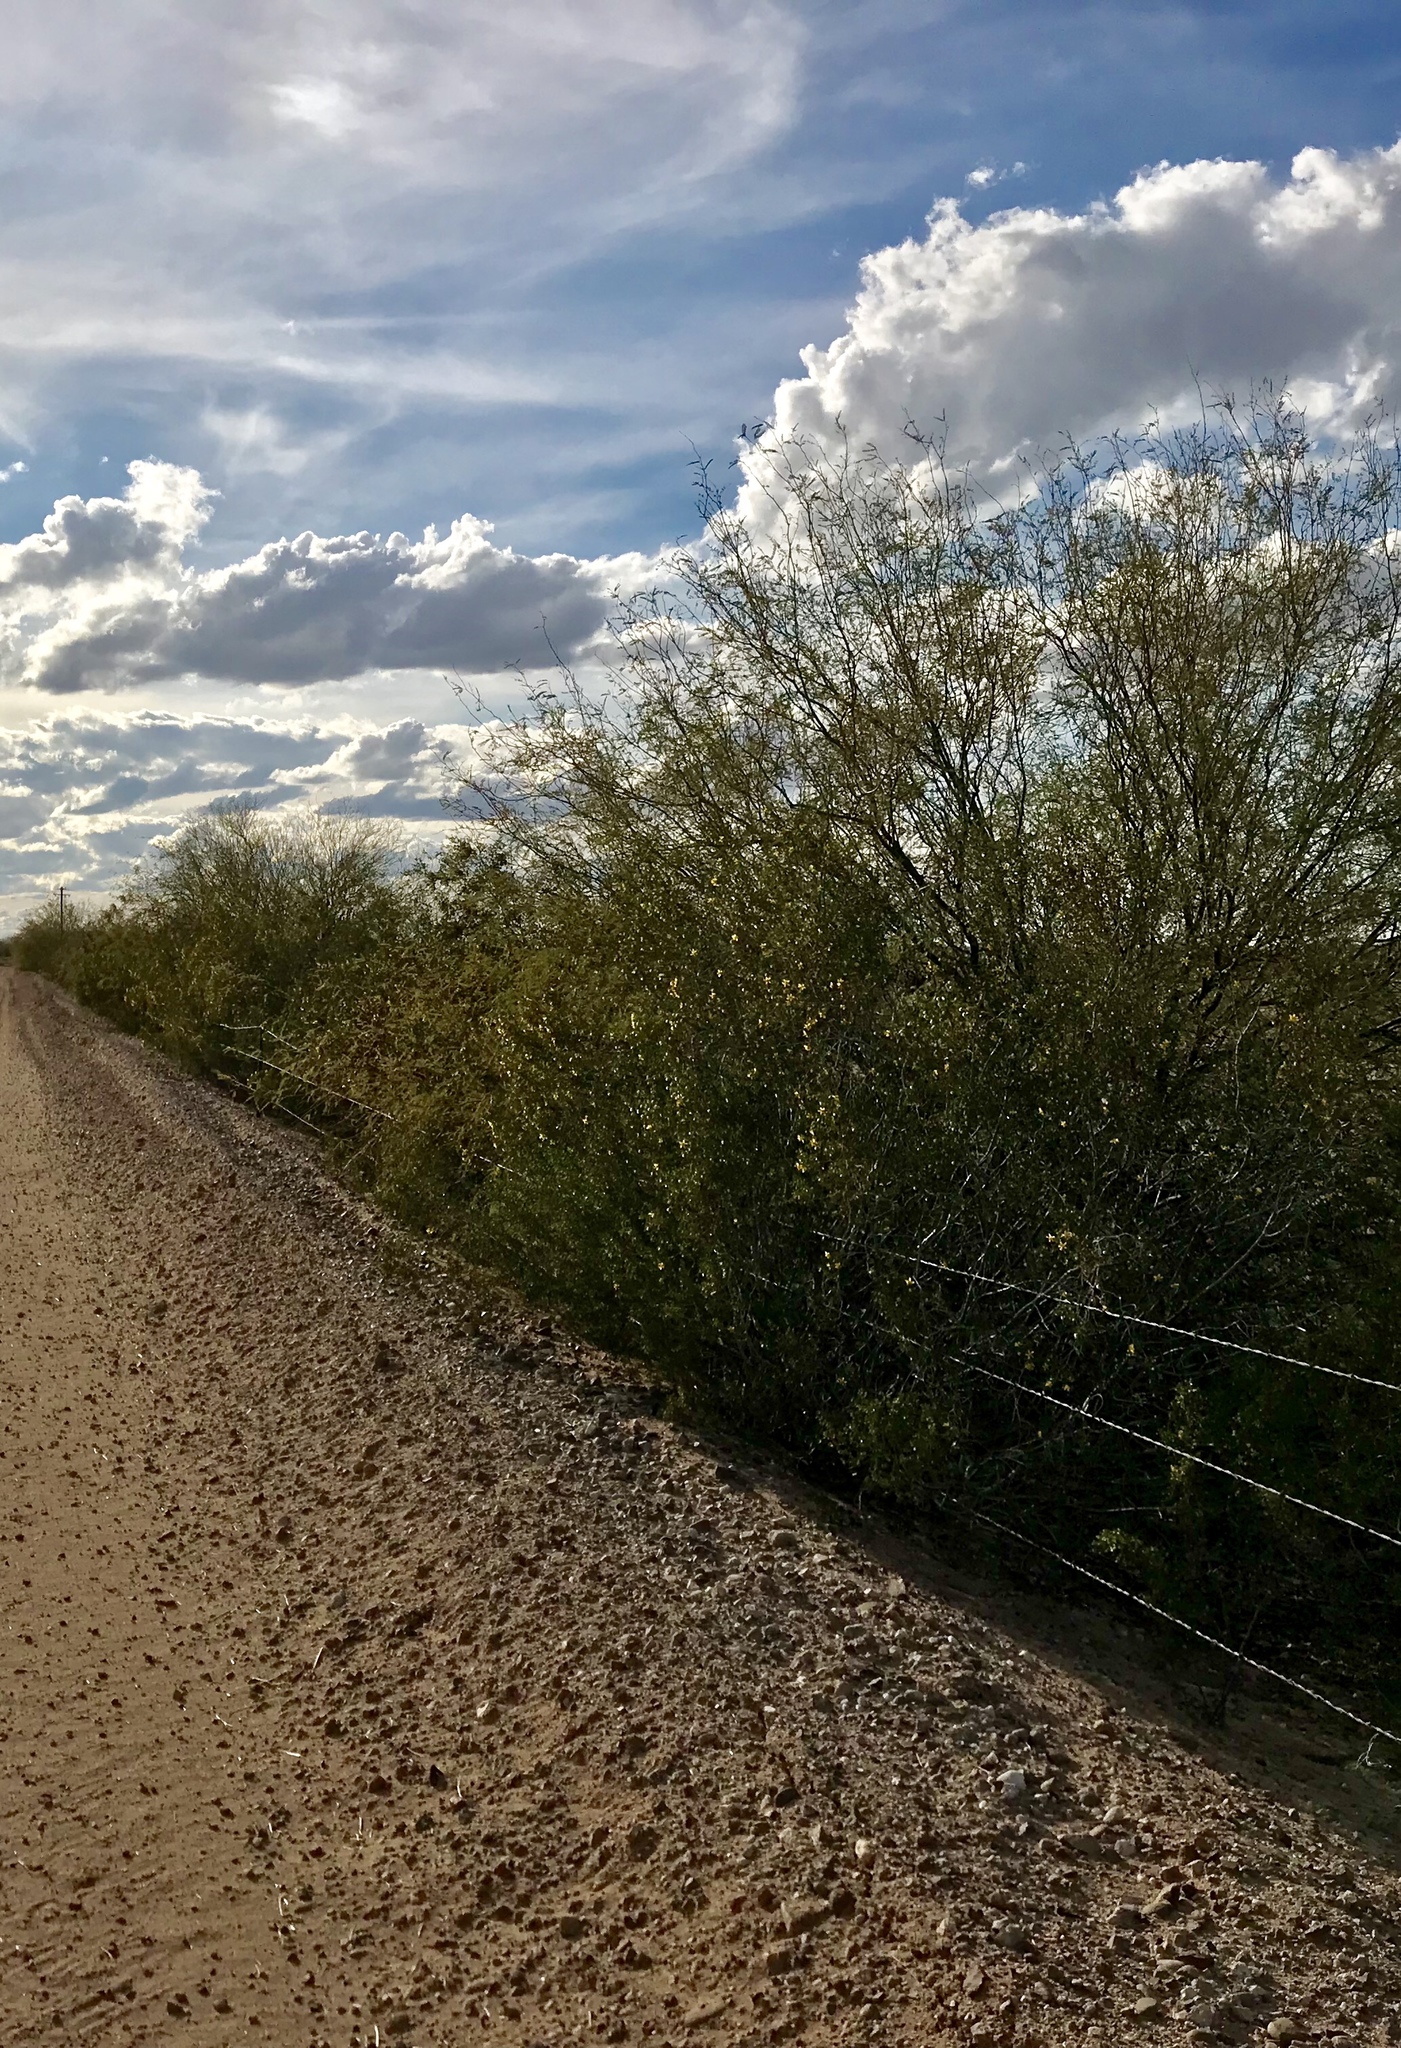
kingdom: Plantae
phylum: Tracheophyta
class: Magnoliopsida
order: Zygophyllales
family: Zygophyllaceae
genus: Larrea
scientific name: Larrea tridentata
